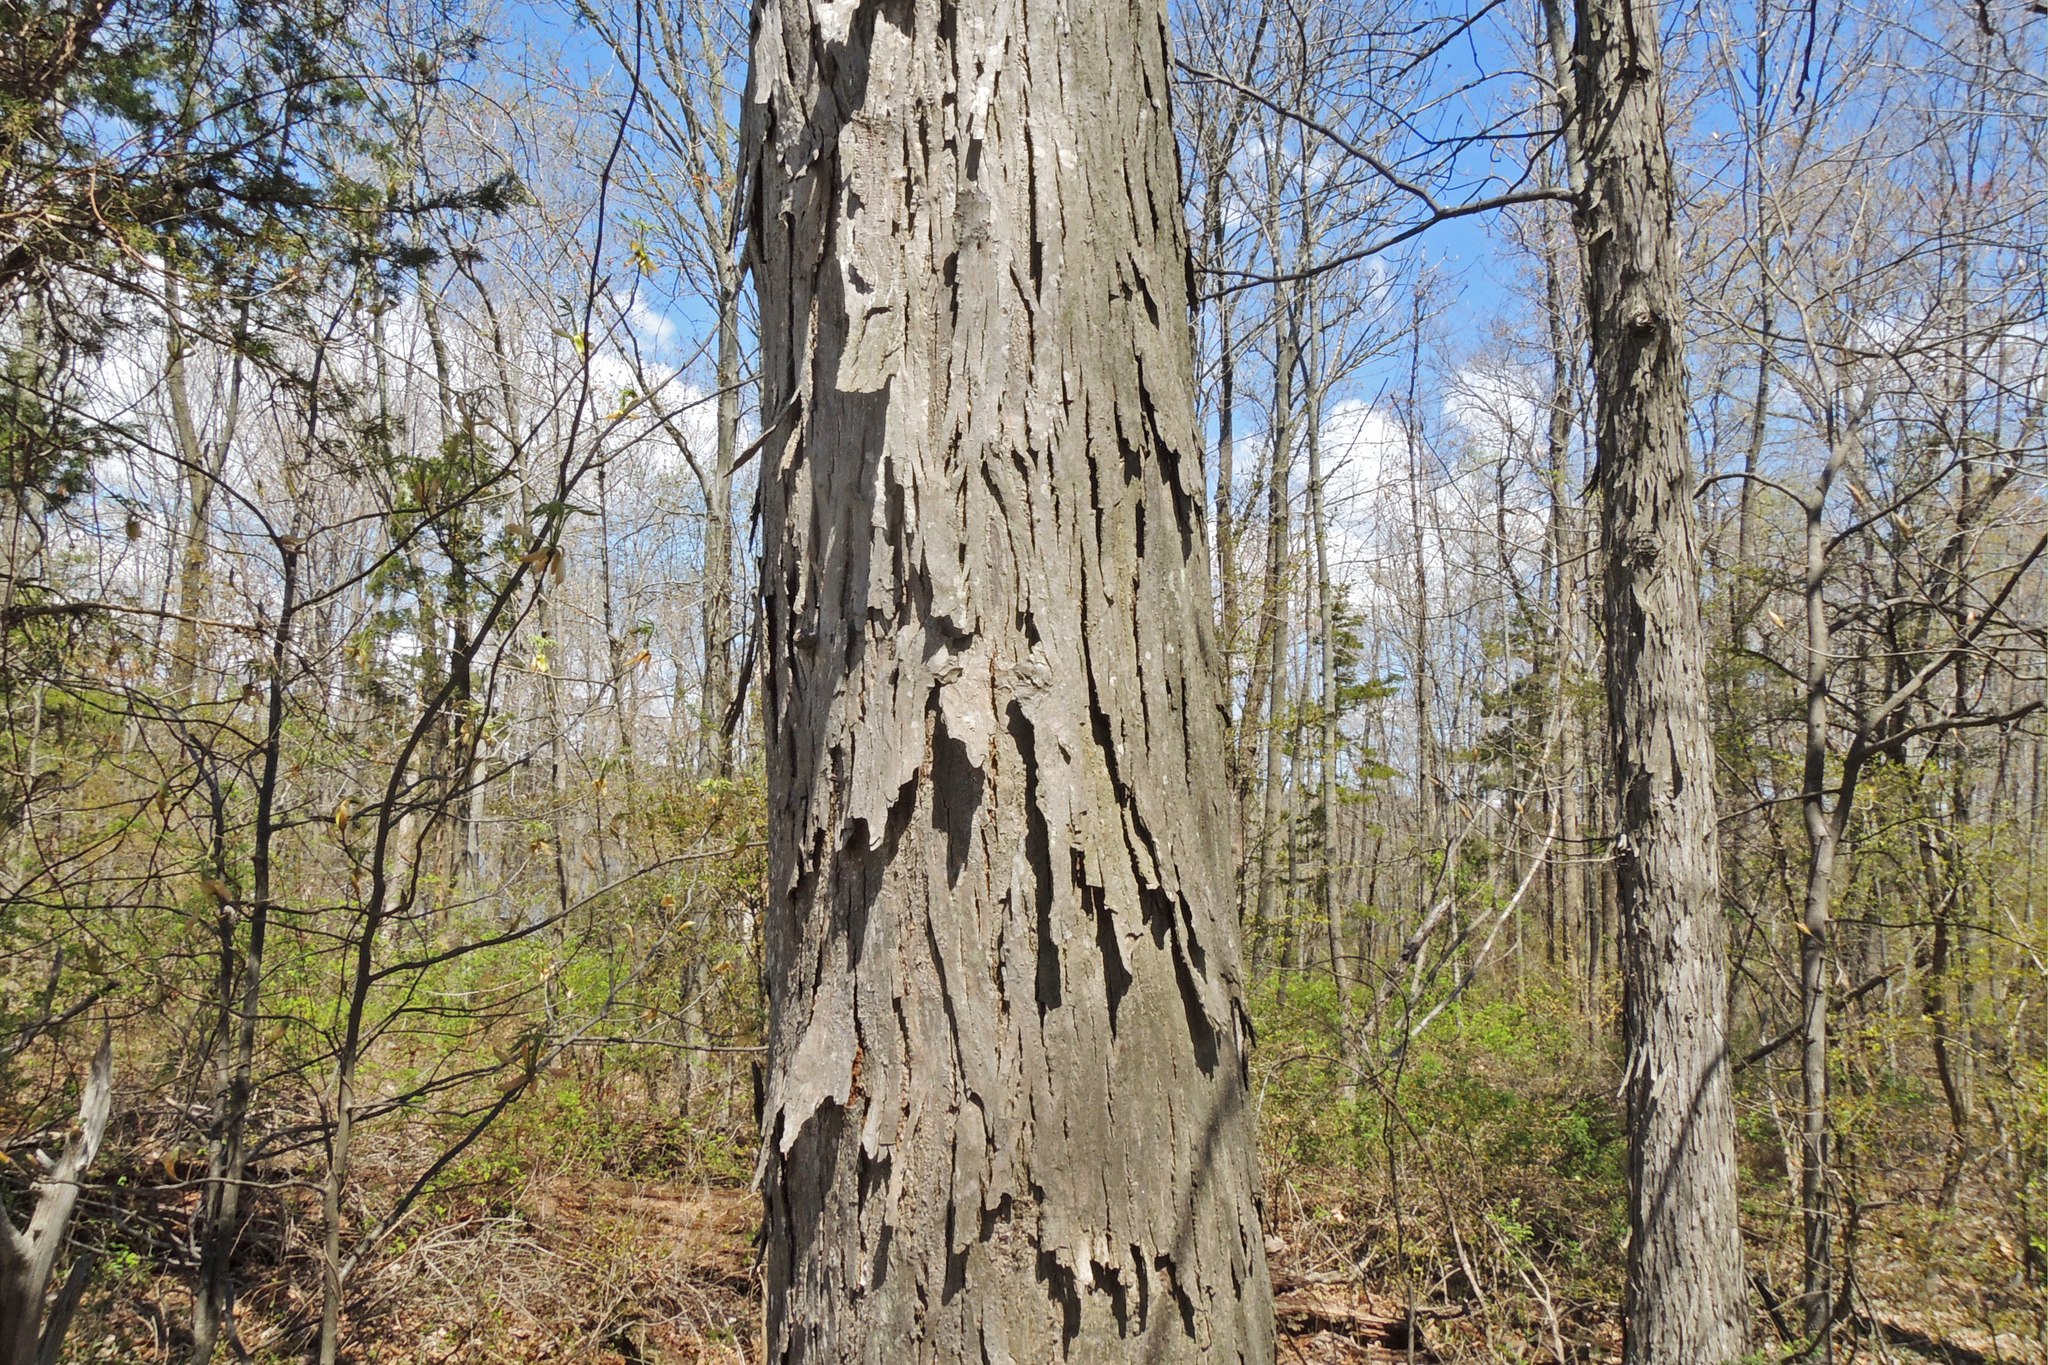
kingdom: Plantae
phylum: Tracheophyta
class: Magnoliopsida
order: Fagales
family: Juglandaceae
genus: Carya
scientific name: Carya ovata
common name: Shagbark hickory
